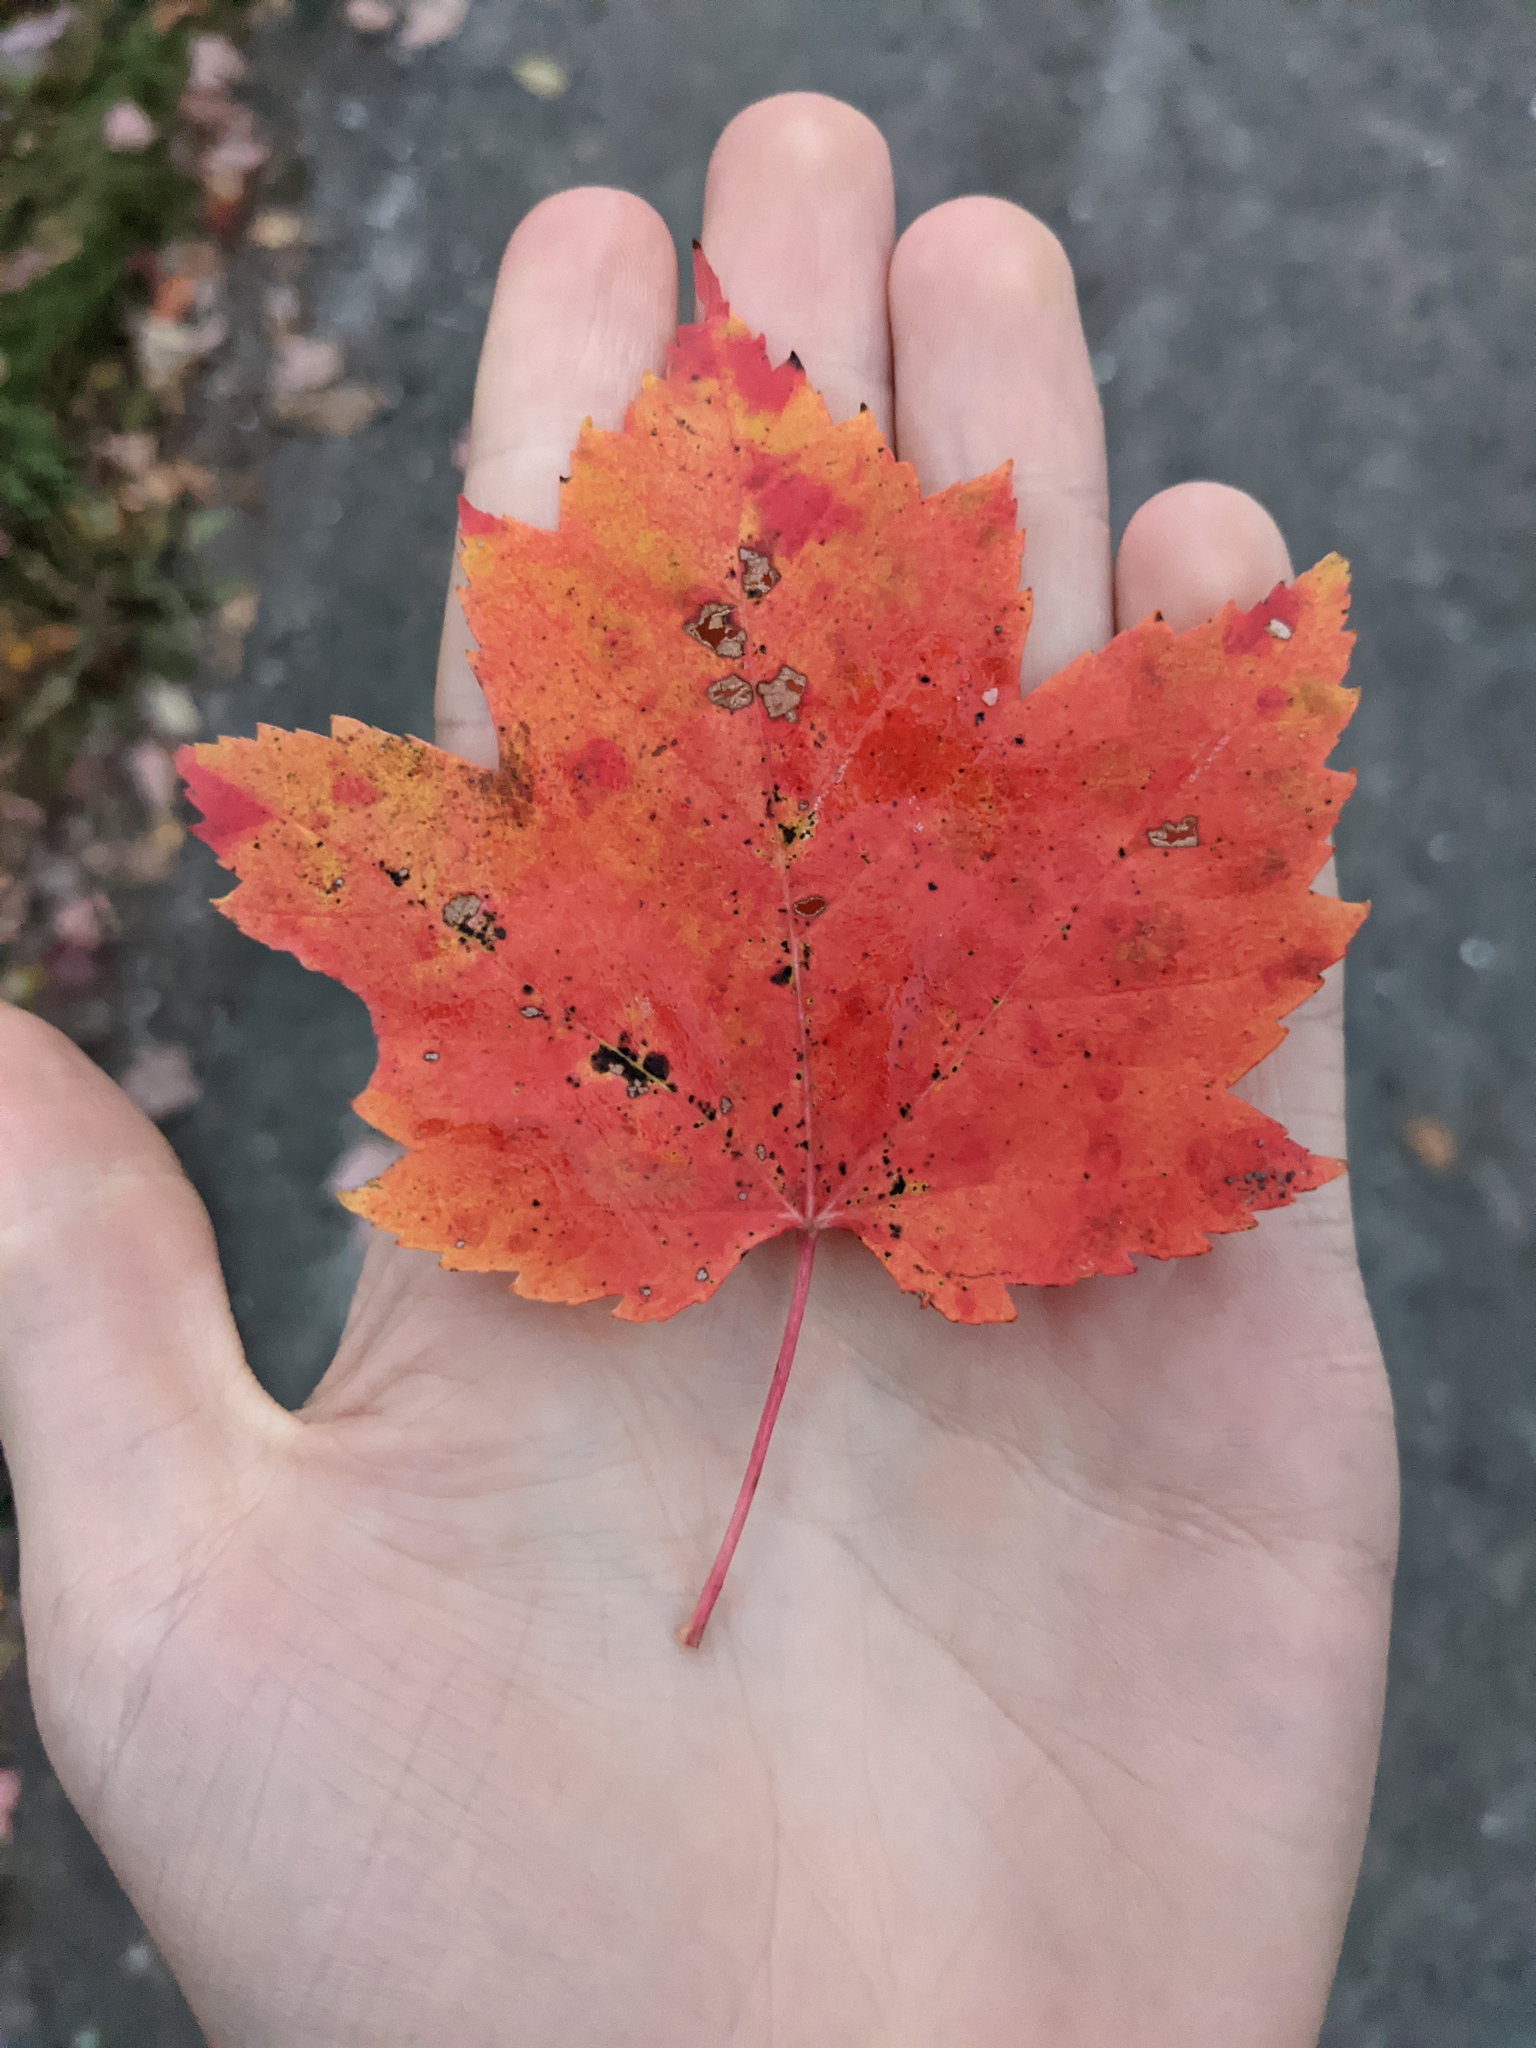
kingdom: Plantae
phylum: Tracheophyta
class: Magnoliopsida
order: Sapindales
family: Sapindaceae
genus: Acer
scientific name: Acer rubrum
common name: Red maple
